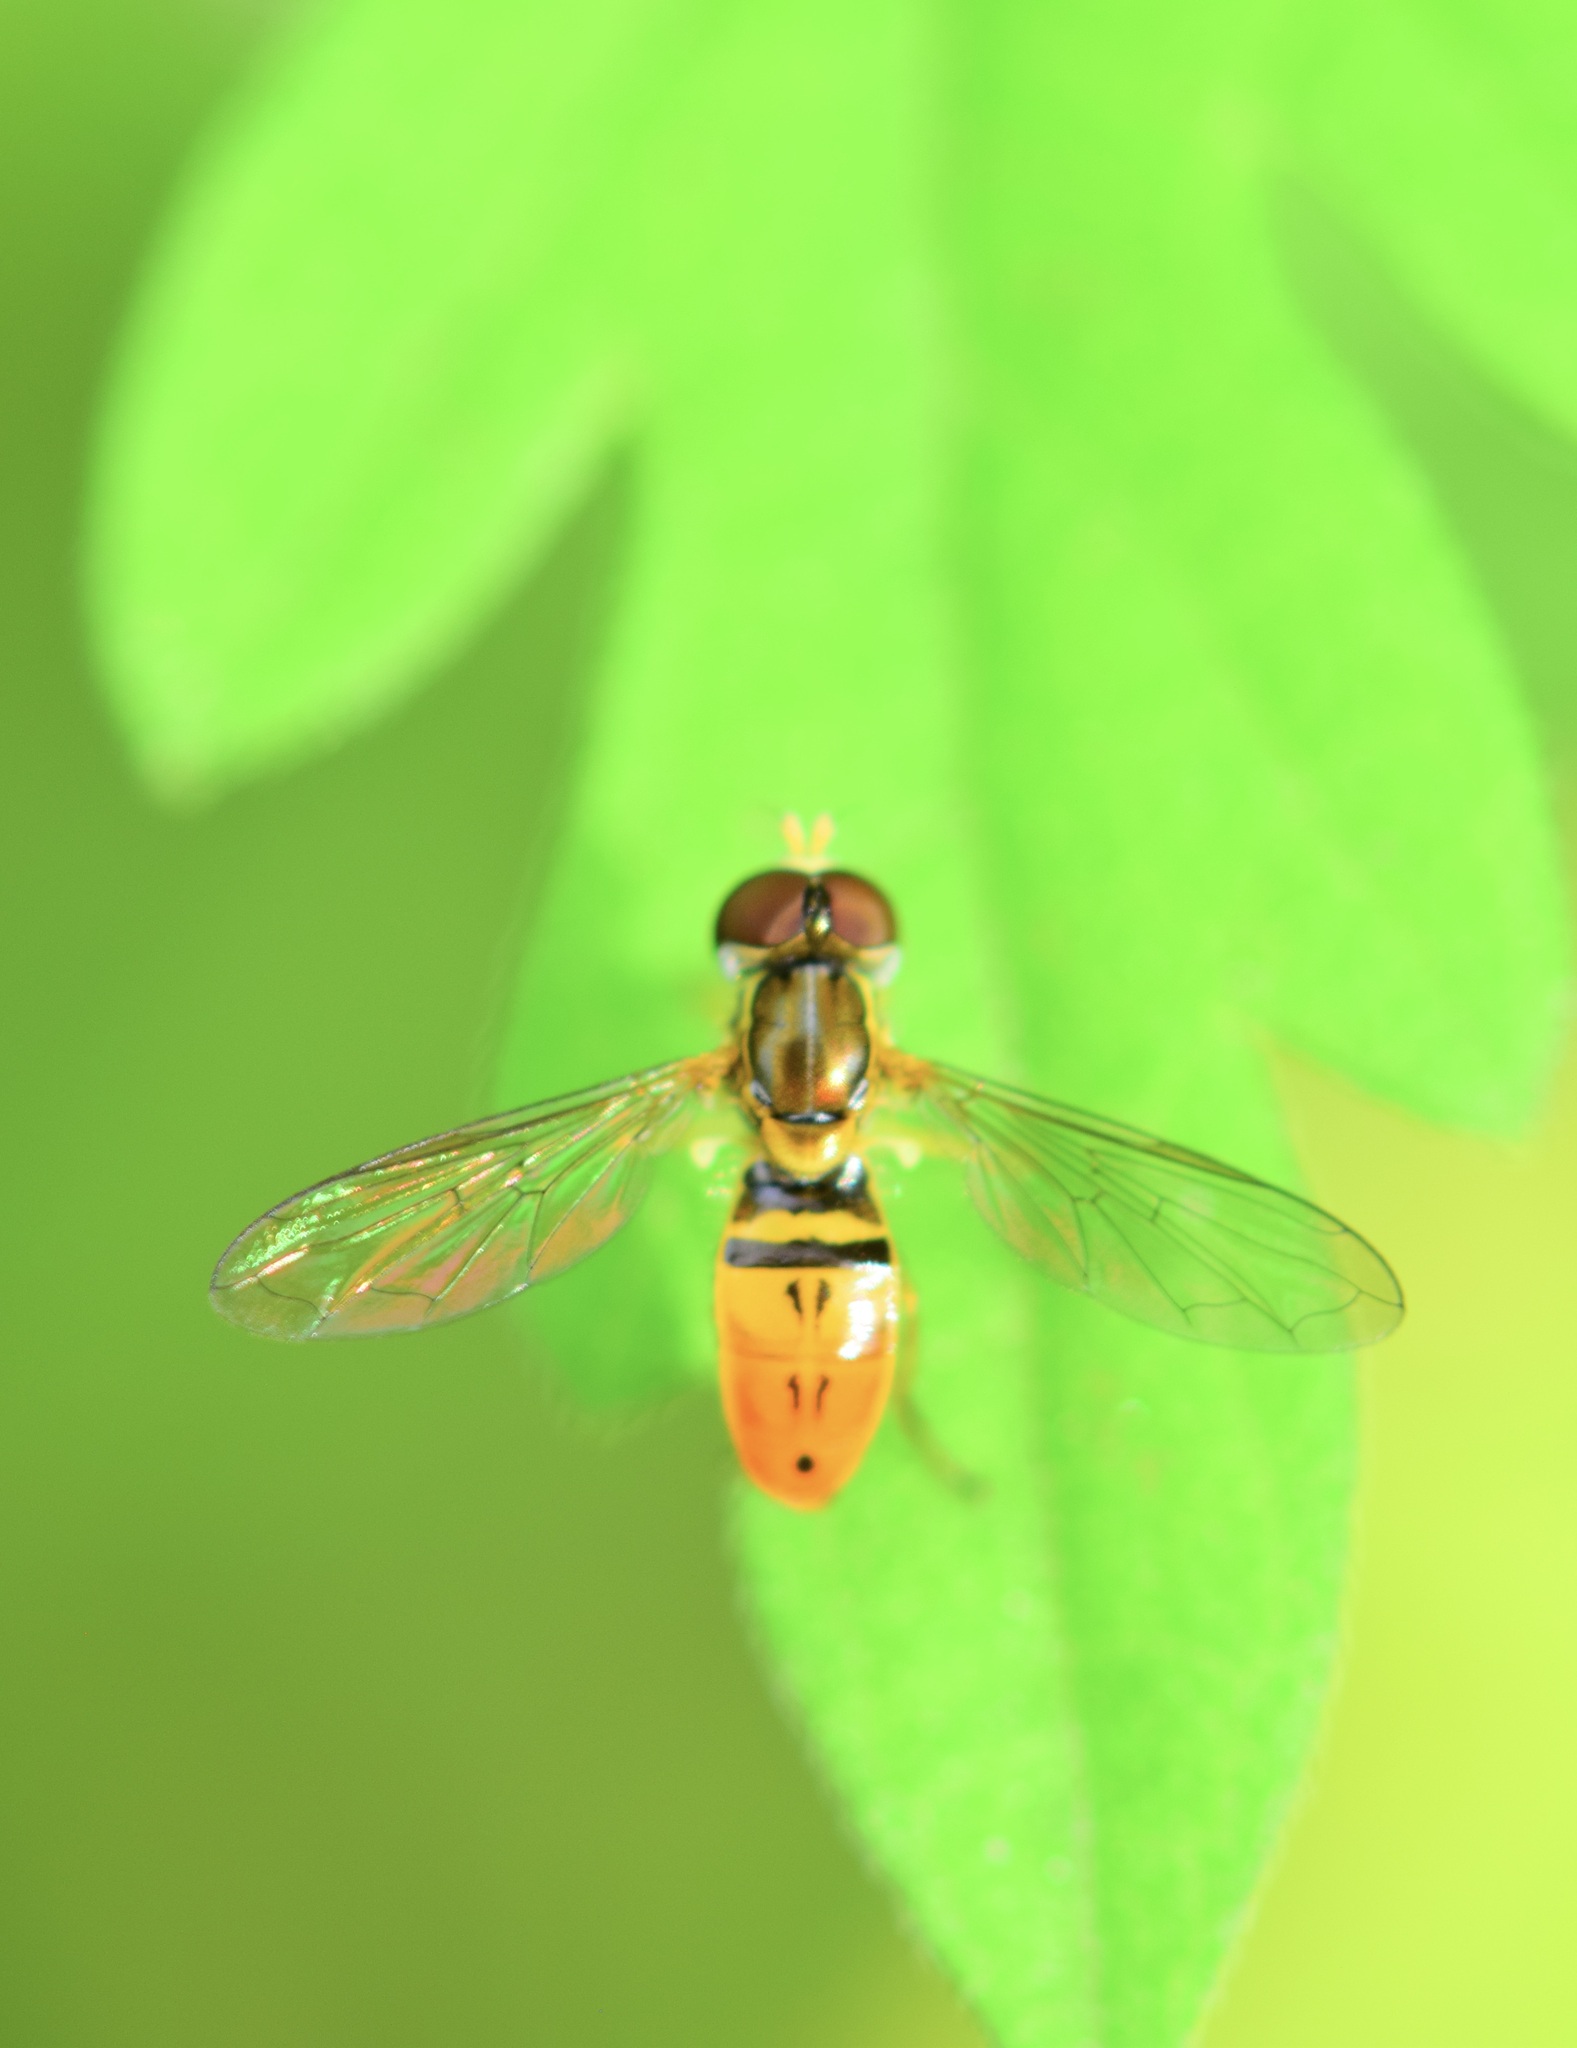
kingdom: Animalia
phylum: Arthropoda
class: Insecta
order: Diptera
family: Syrphidae
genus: Toxomerus
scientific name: Toxomerus marginatus
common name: Syrphid fly
